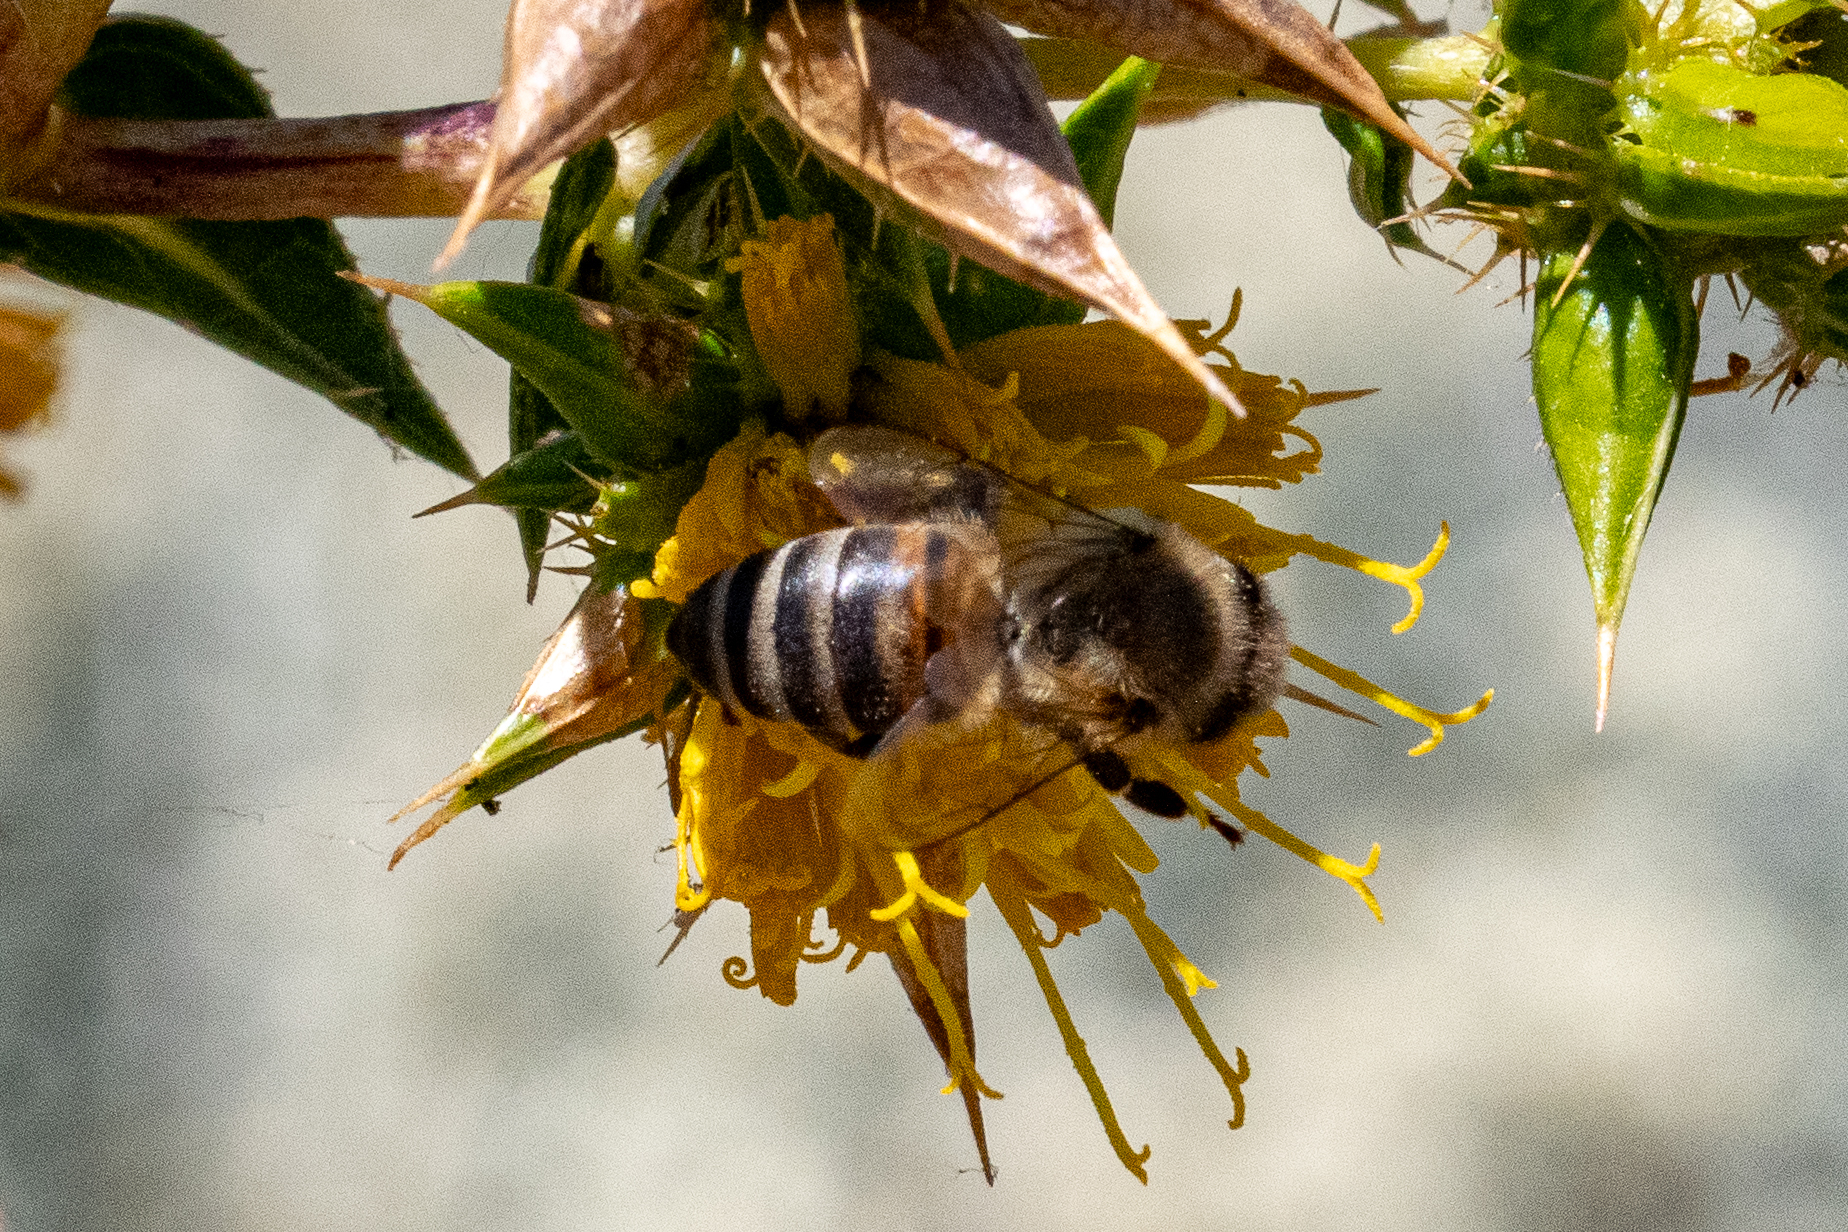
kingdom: Animalia
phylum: Arthropoda
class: Insecta
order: Hymenoptera
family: Apidae
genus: Apis
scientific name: Apis mellifera
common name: Honey bee
